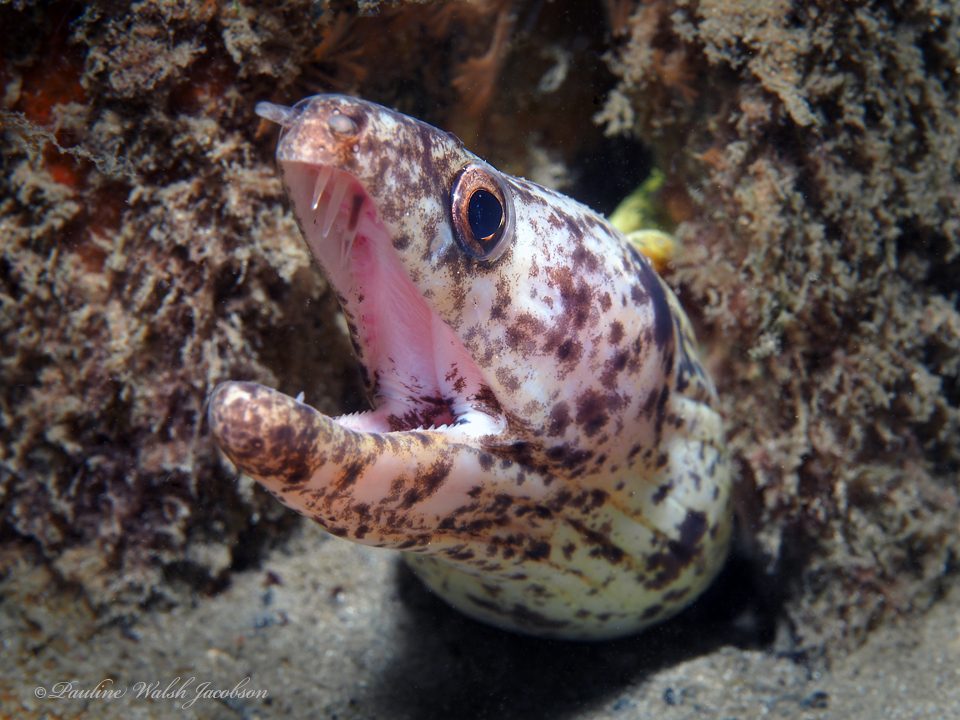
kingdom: Animalia
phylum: Chordata
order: Anguilliformes
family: Muraenidae
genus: Gymnothorax
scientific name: Gymnothorax moringa
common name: Spotted moray
